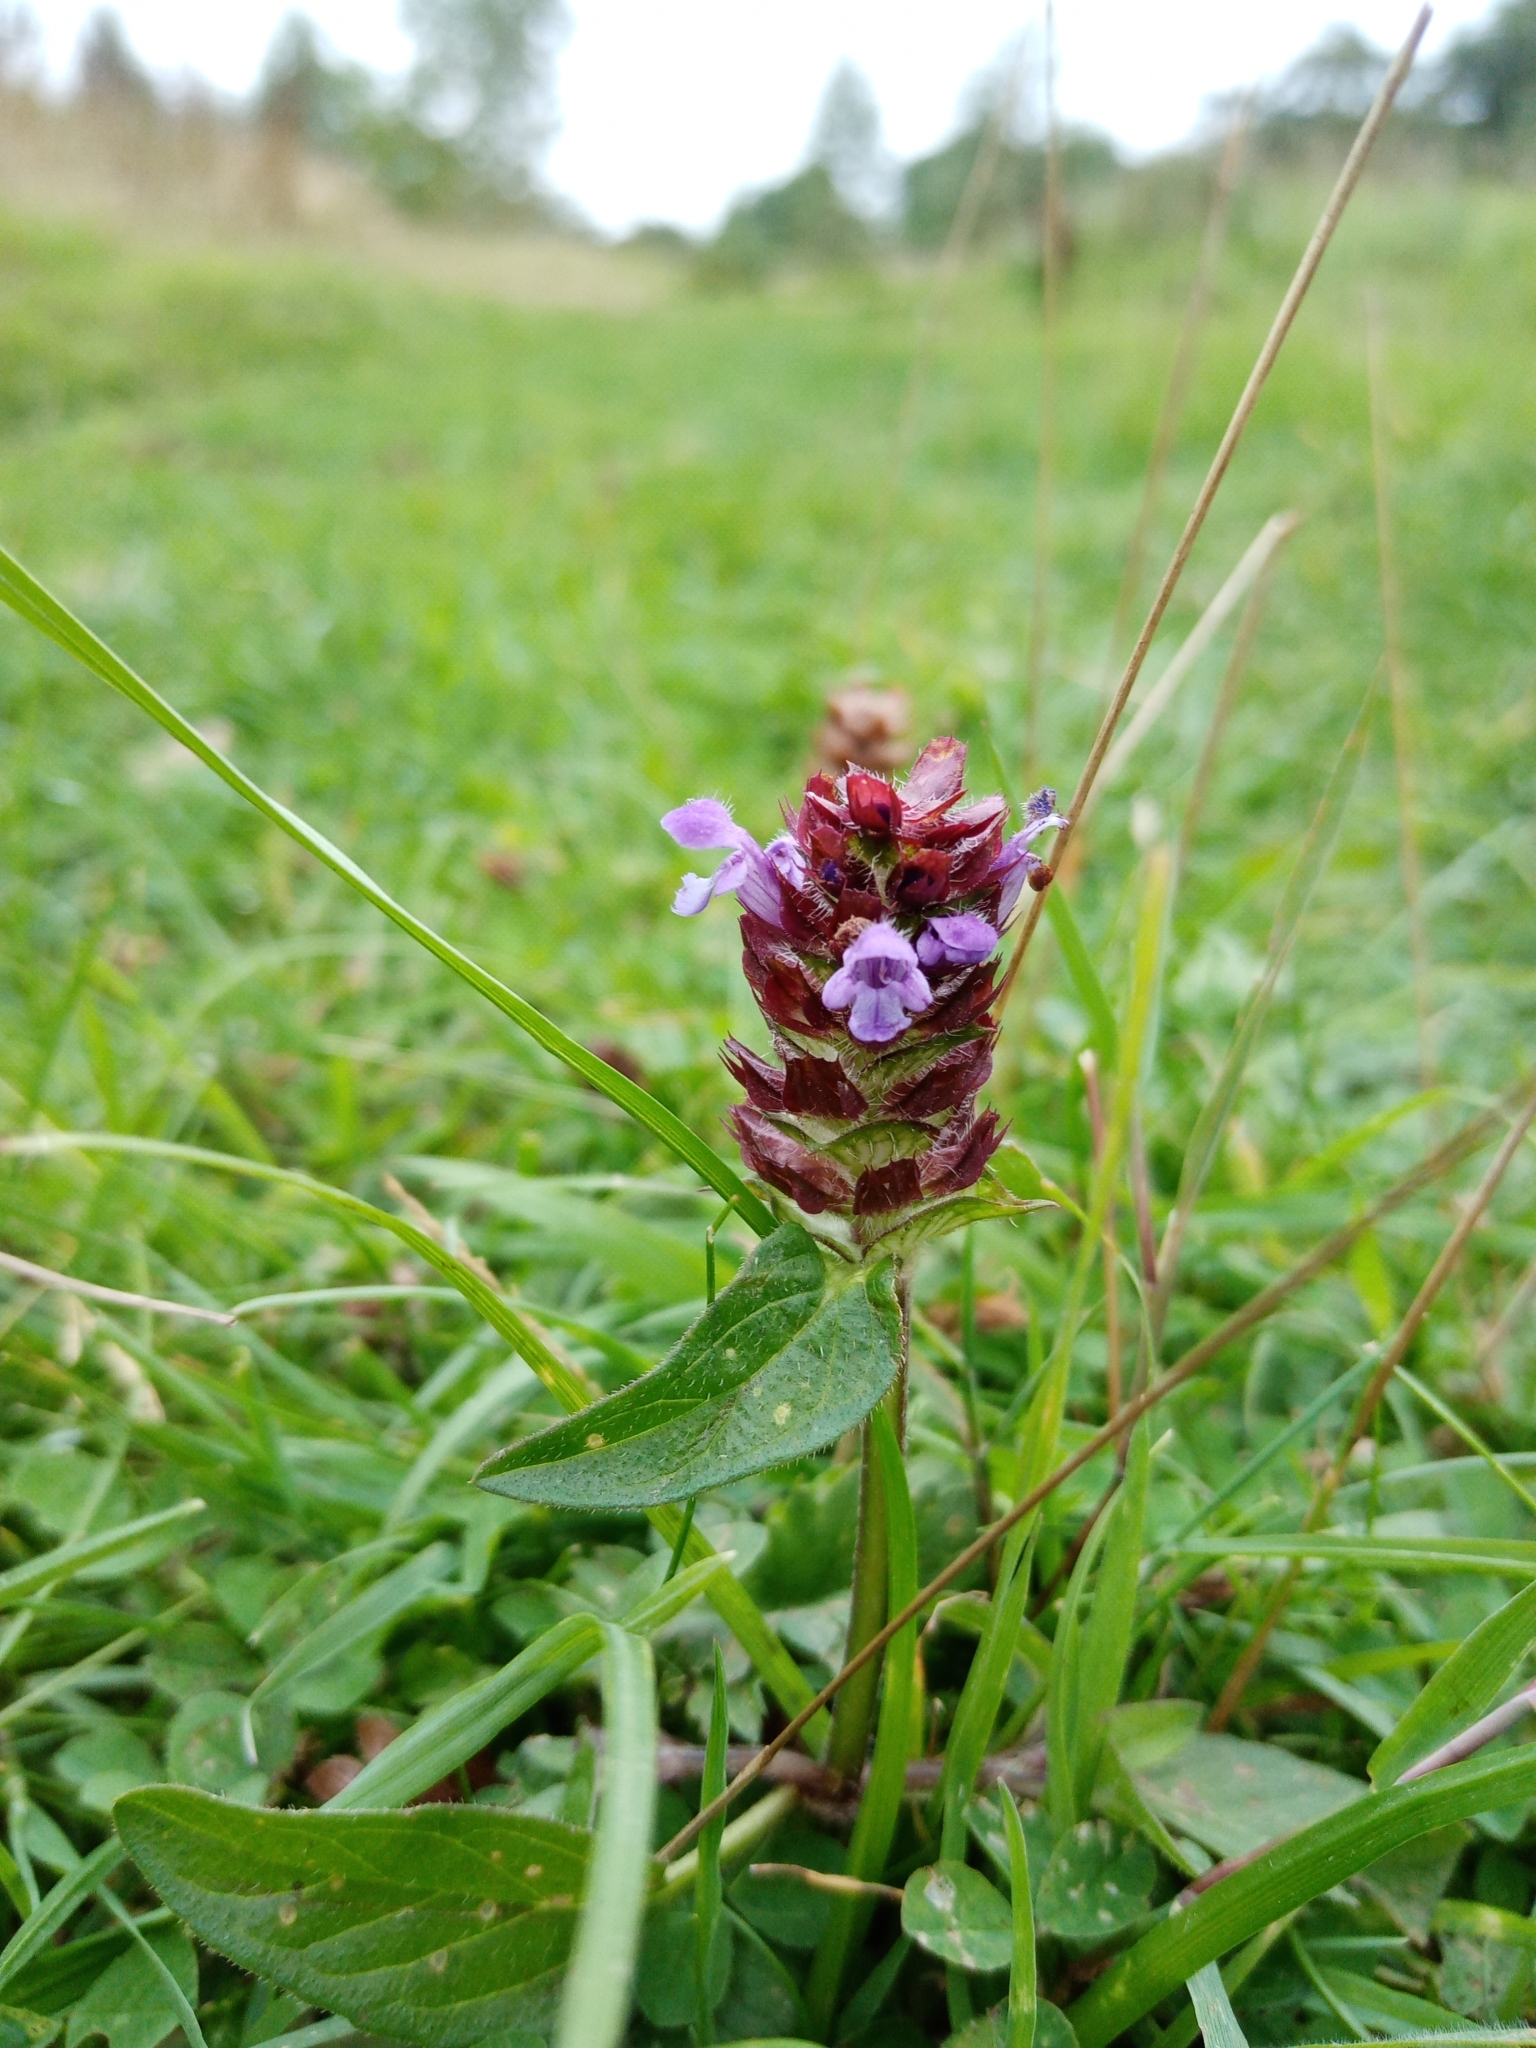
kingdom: Plantae
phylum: Tracheophyta
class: Magnoliopsida
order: Lamiales
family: Lamiaceae
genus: Prunella
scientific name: Prunella vulgaris
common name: Heal-all
